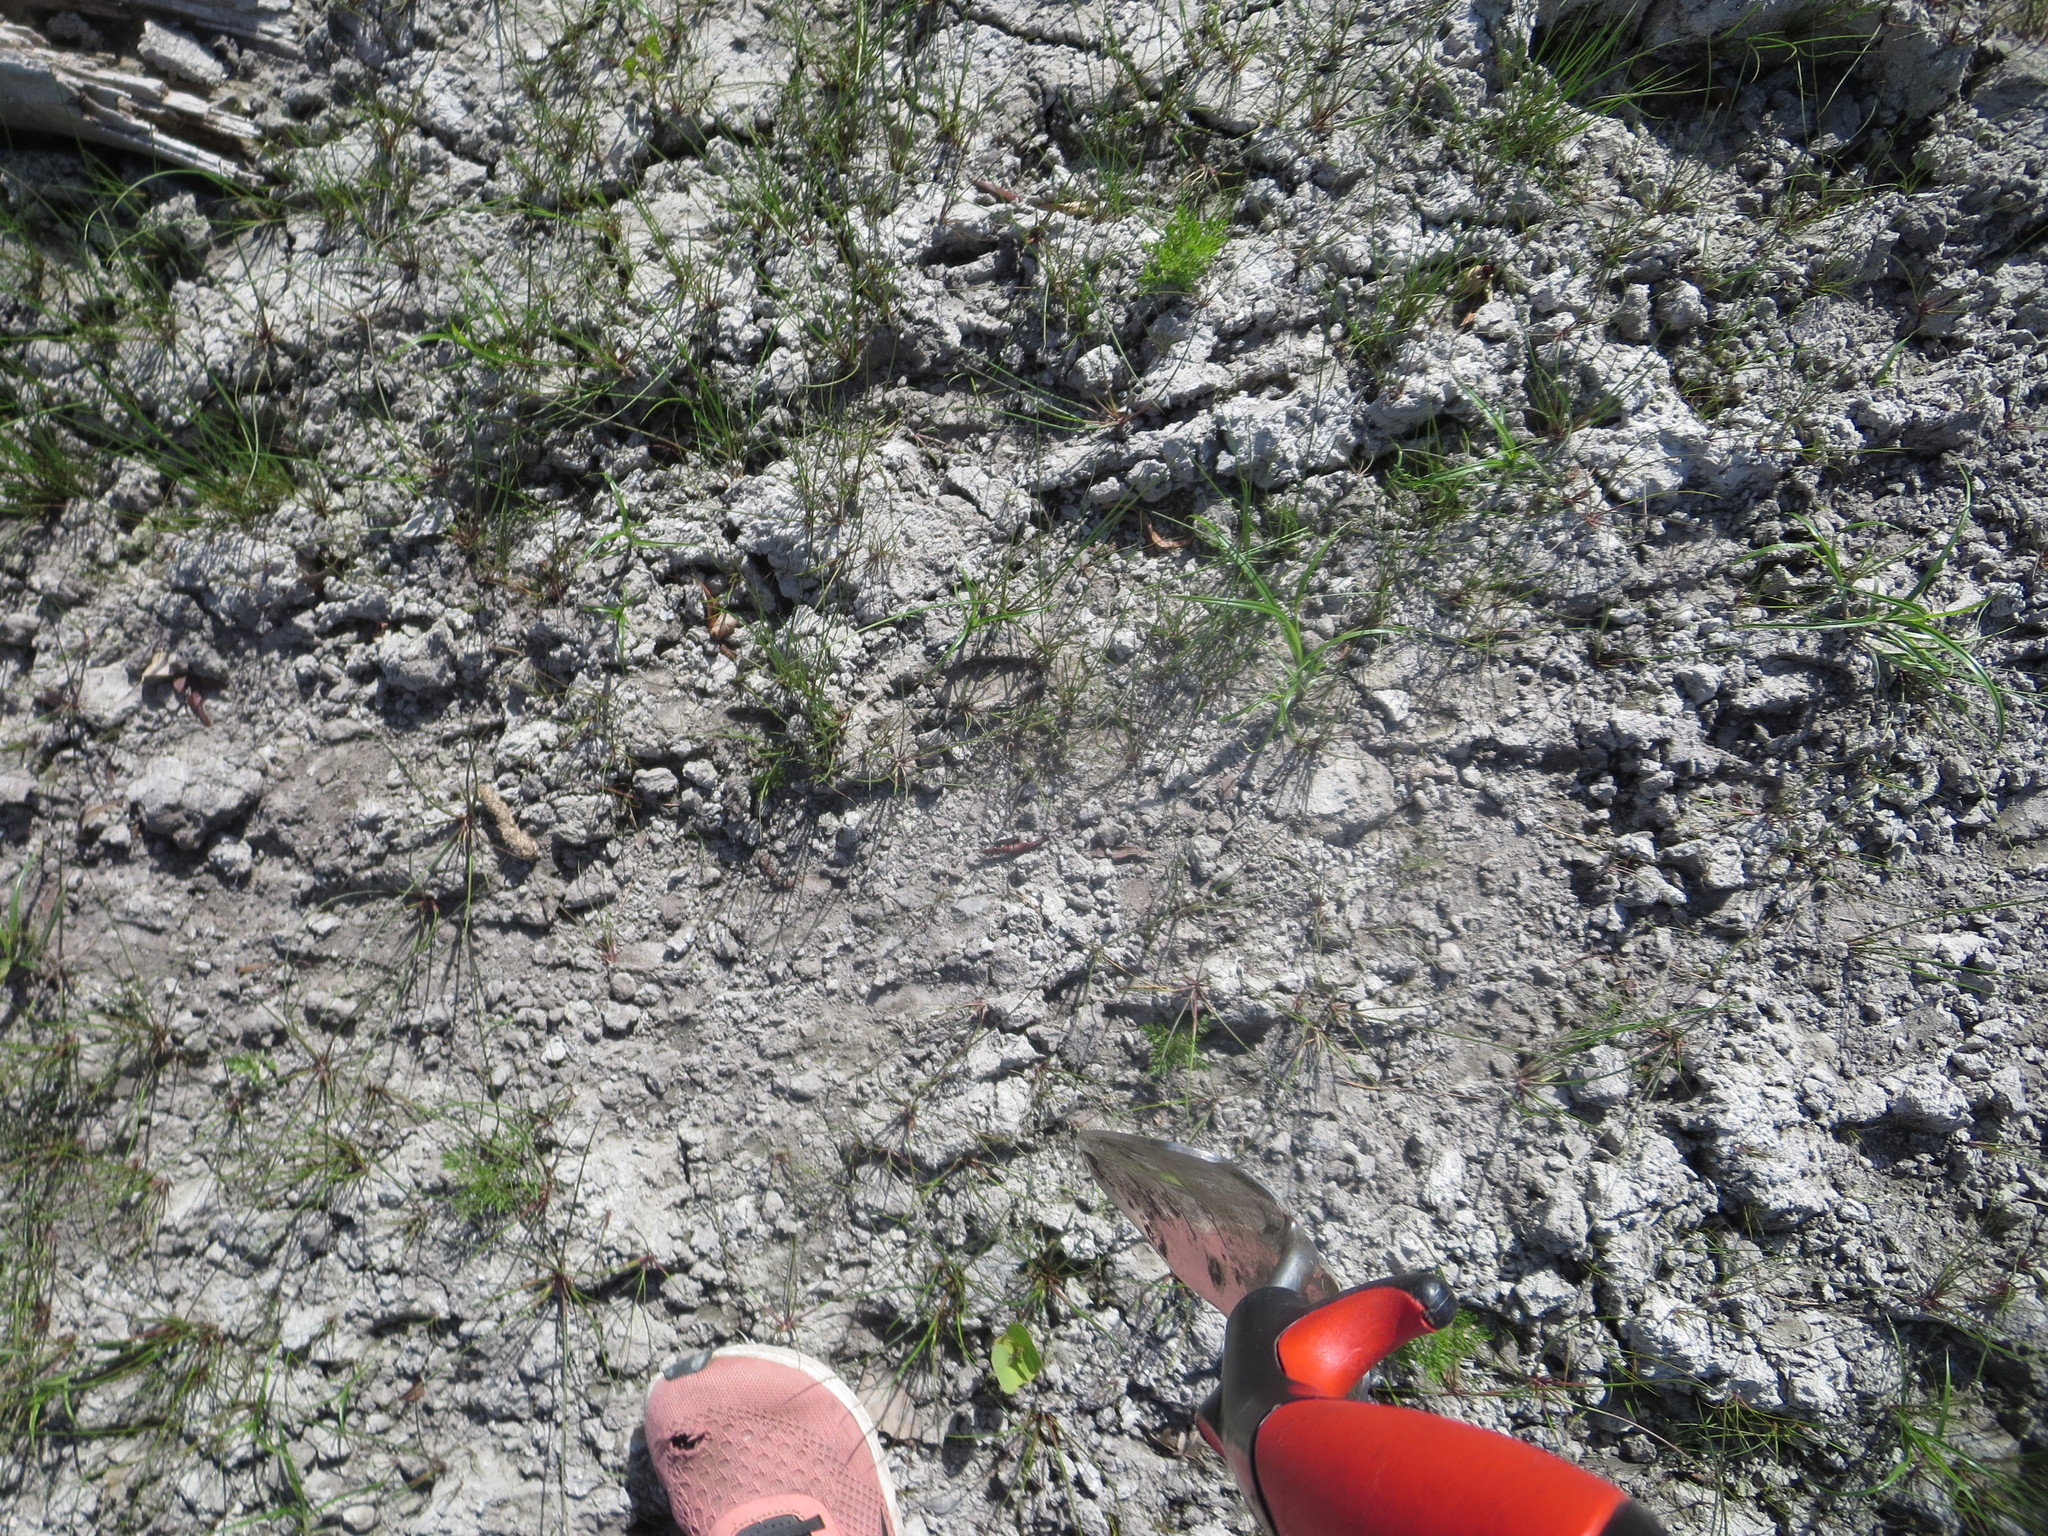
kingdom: Animalia
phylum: Chordata
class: Mammalia
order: Artiodactyla
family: Cervidae
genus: Odocoileus
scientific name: Odocoileus virginianus
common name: White-tailed deer
